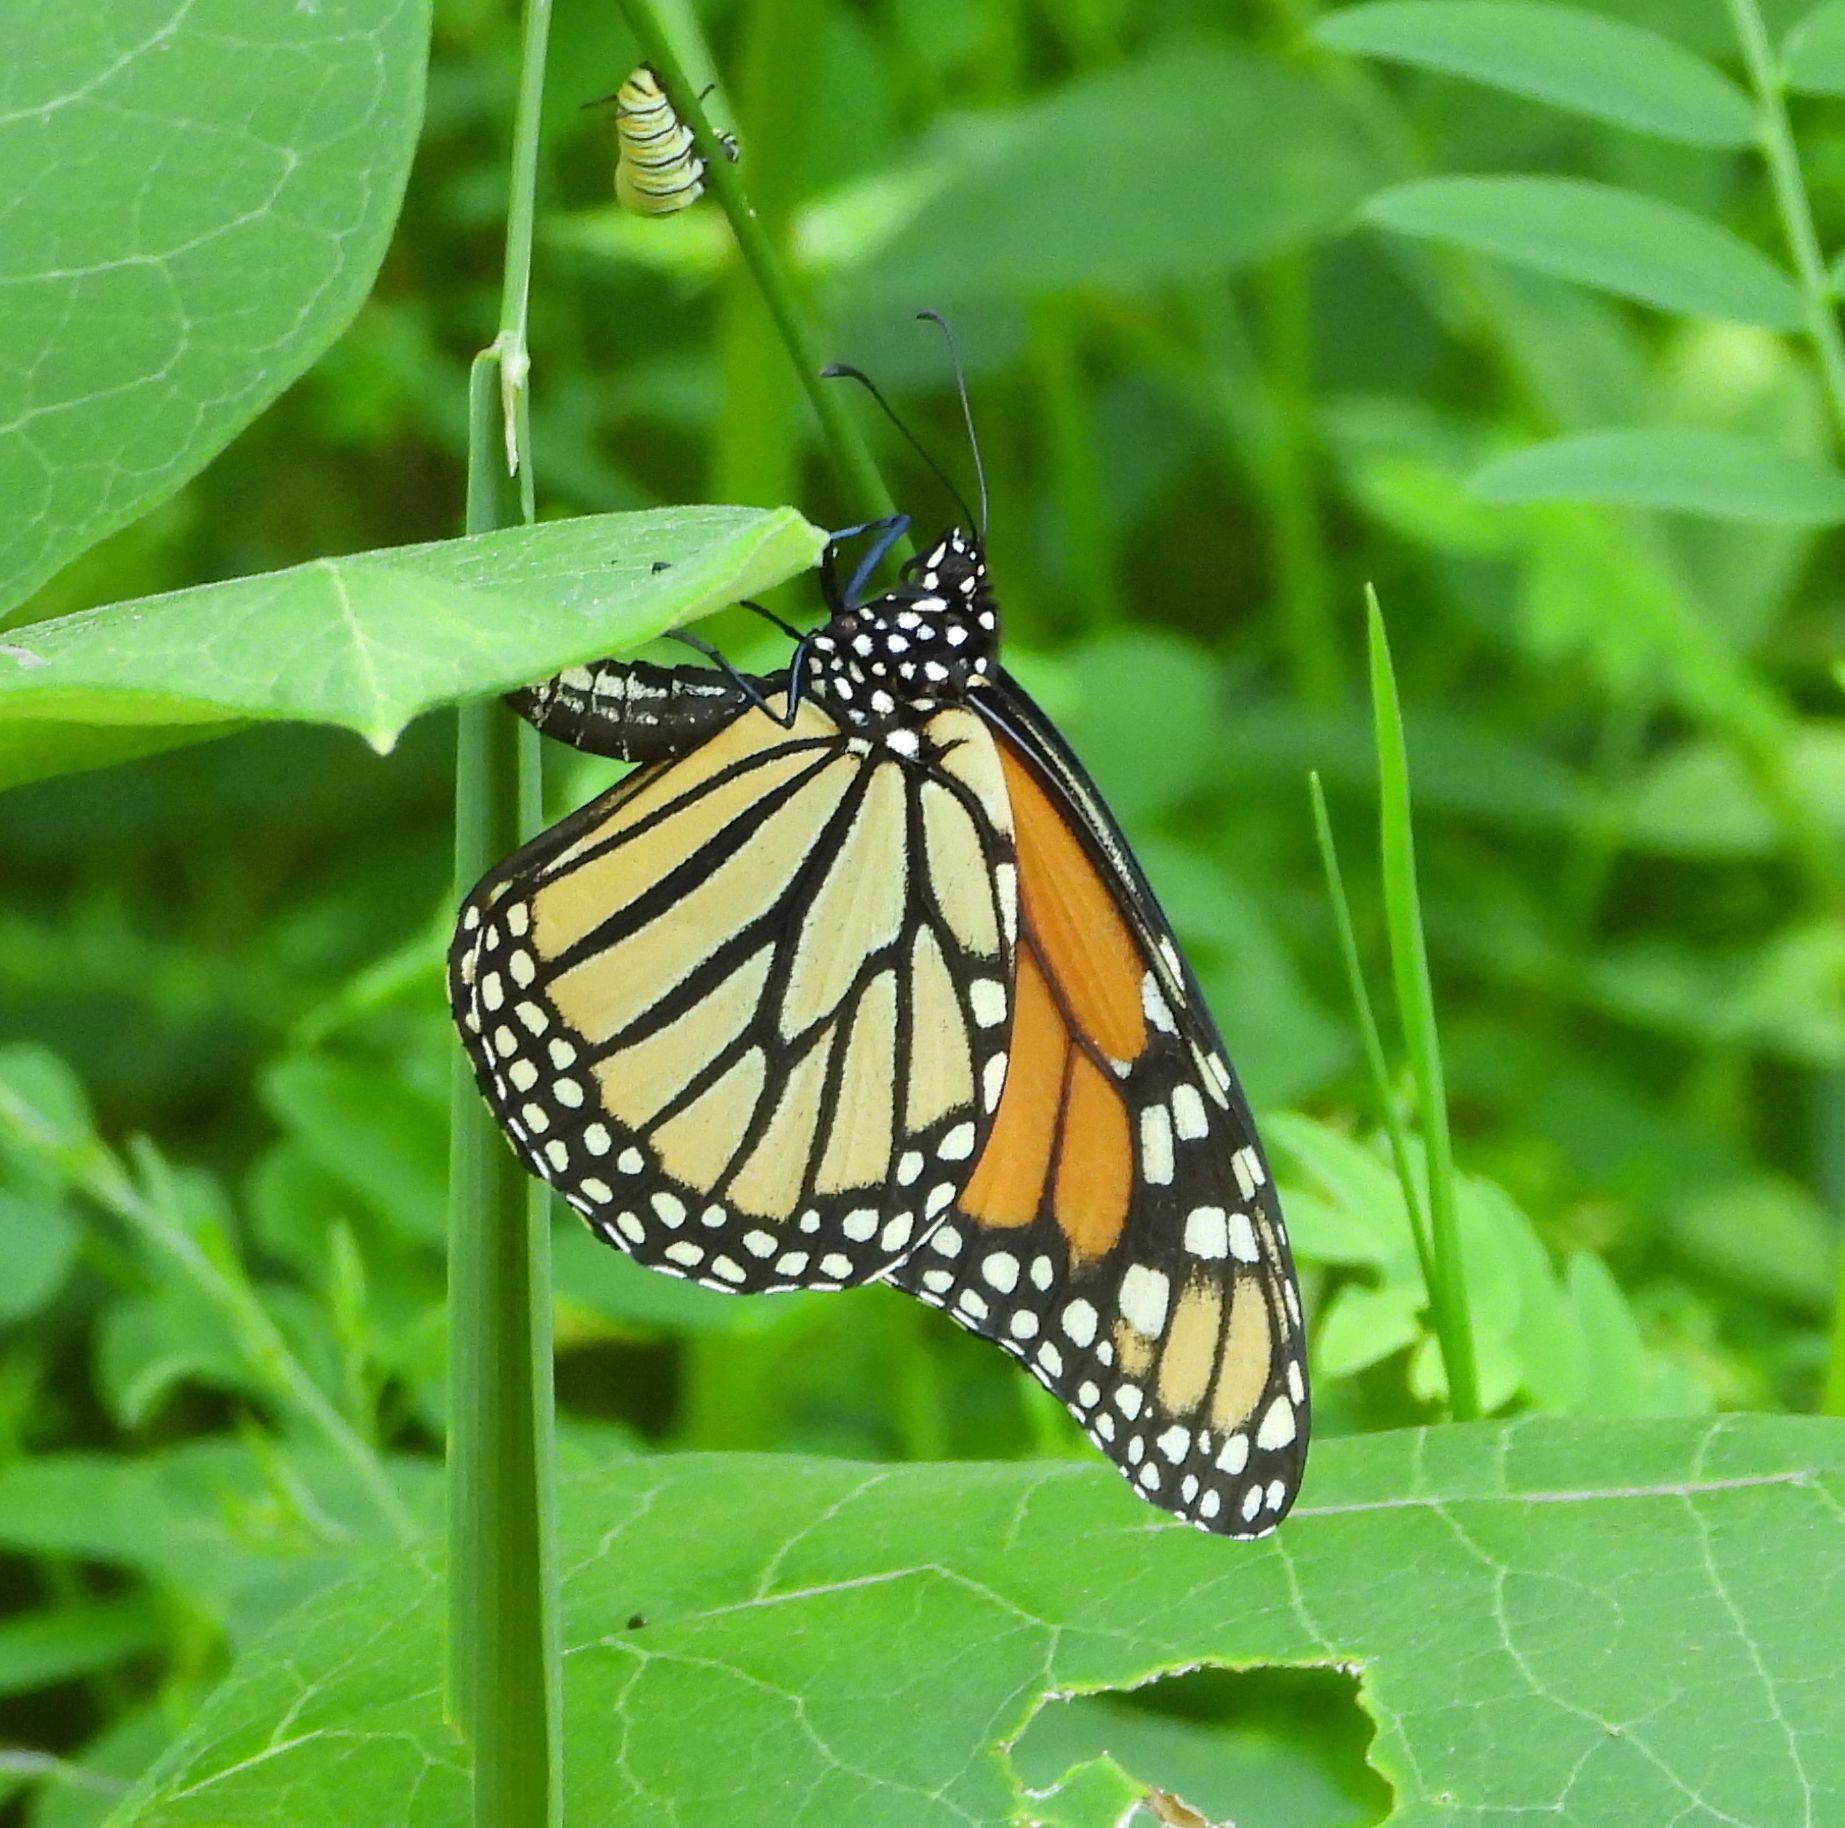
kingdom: Animalia
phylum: Arthropoda
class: Insecta
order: Lepidoptera
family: Nymphalidae
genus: Danaus
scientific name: Danaus plexippus
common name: Monarch
